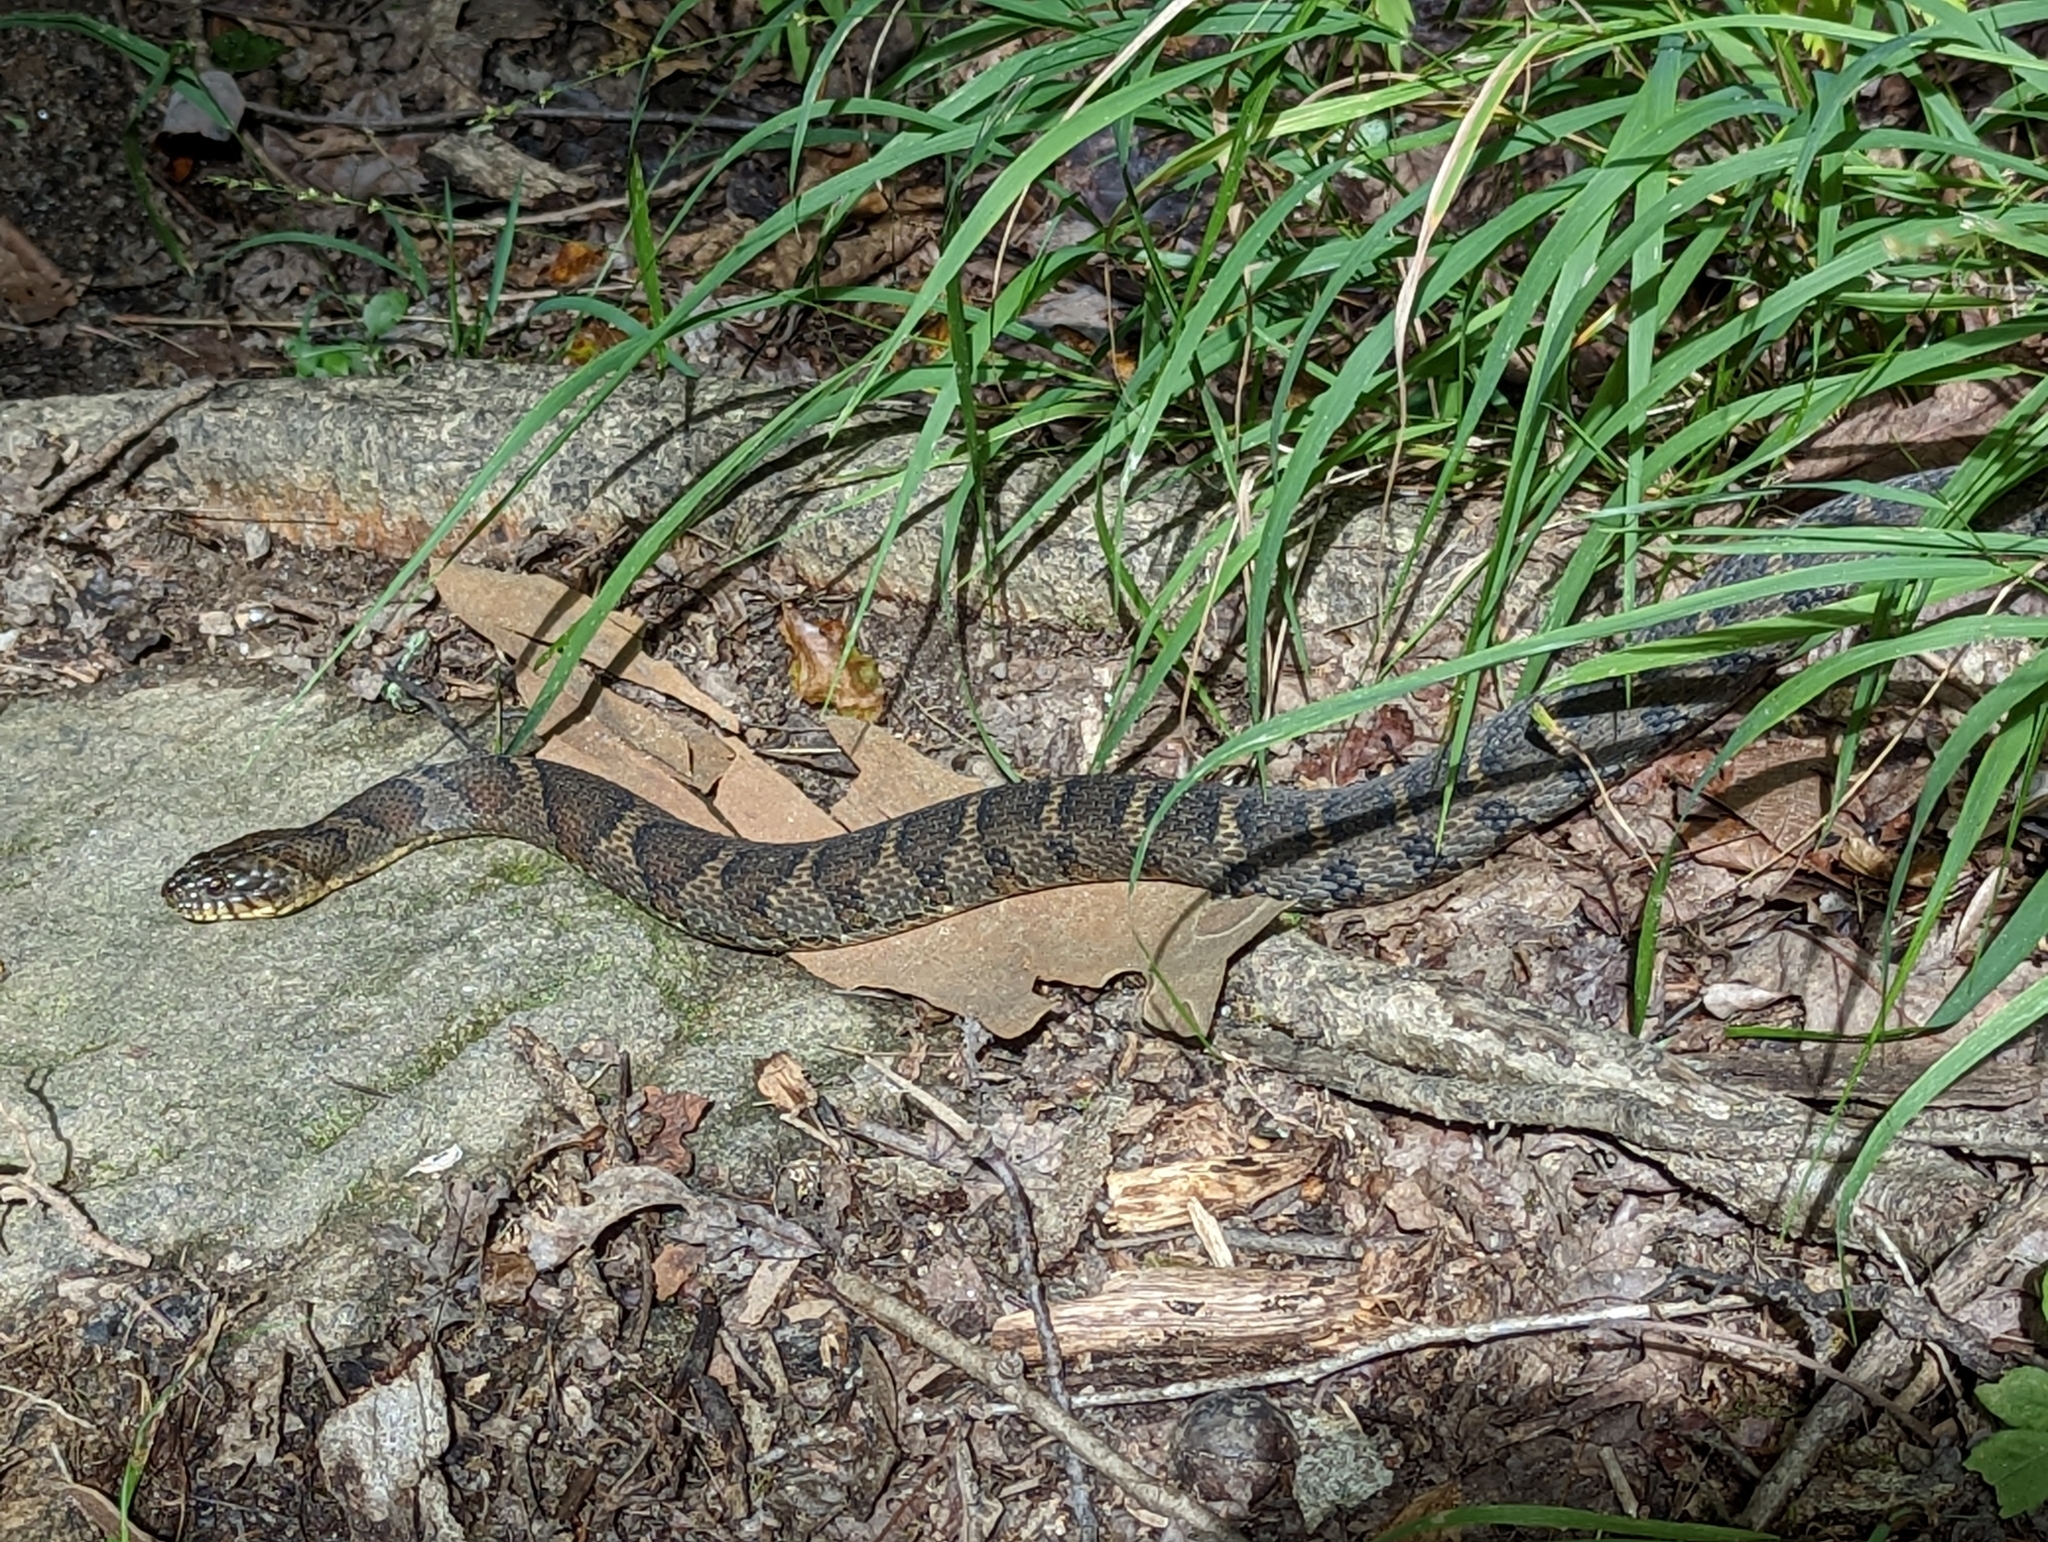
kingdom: Animalia
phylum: Chordata
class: Squamata
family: Colubridae
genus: Nerodia
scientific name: Nerodia sipedon
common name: Northern water snake
